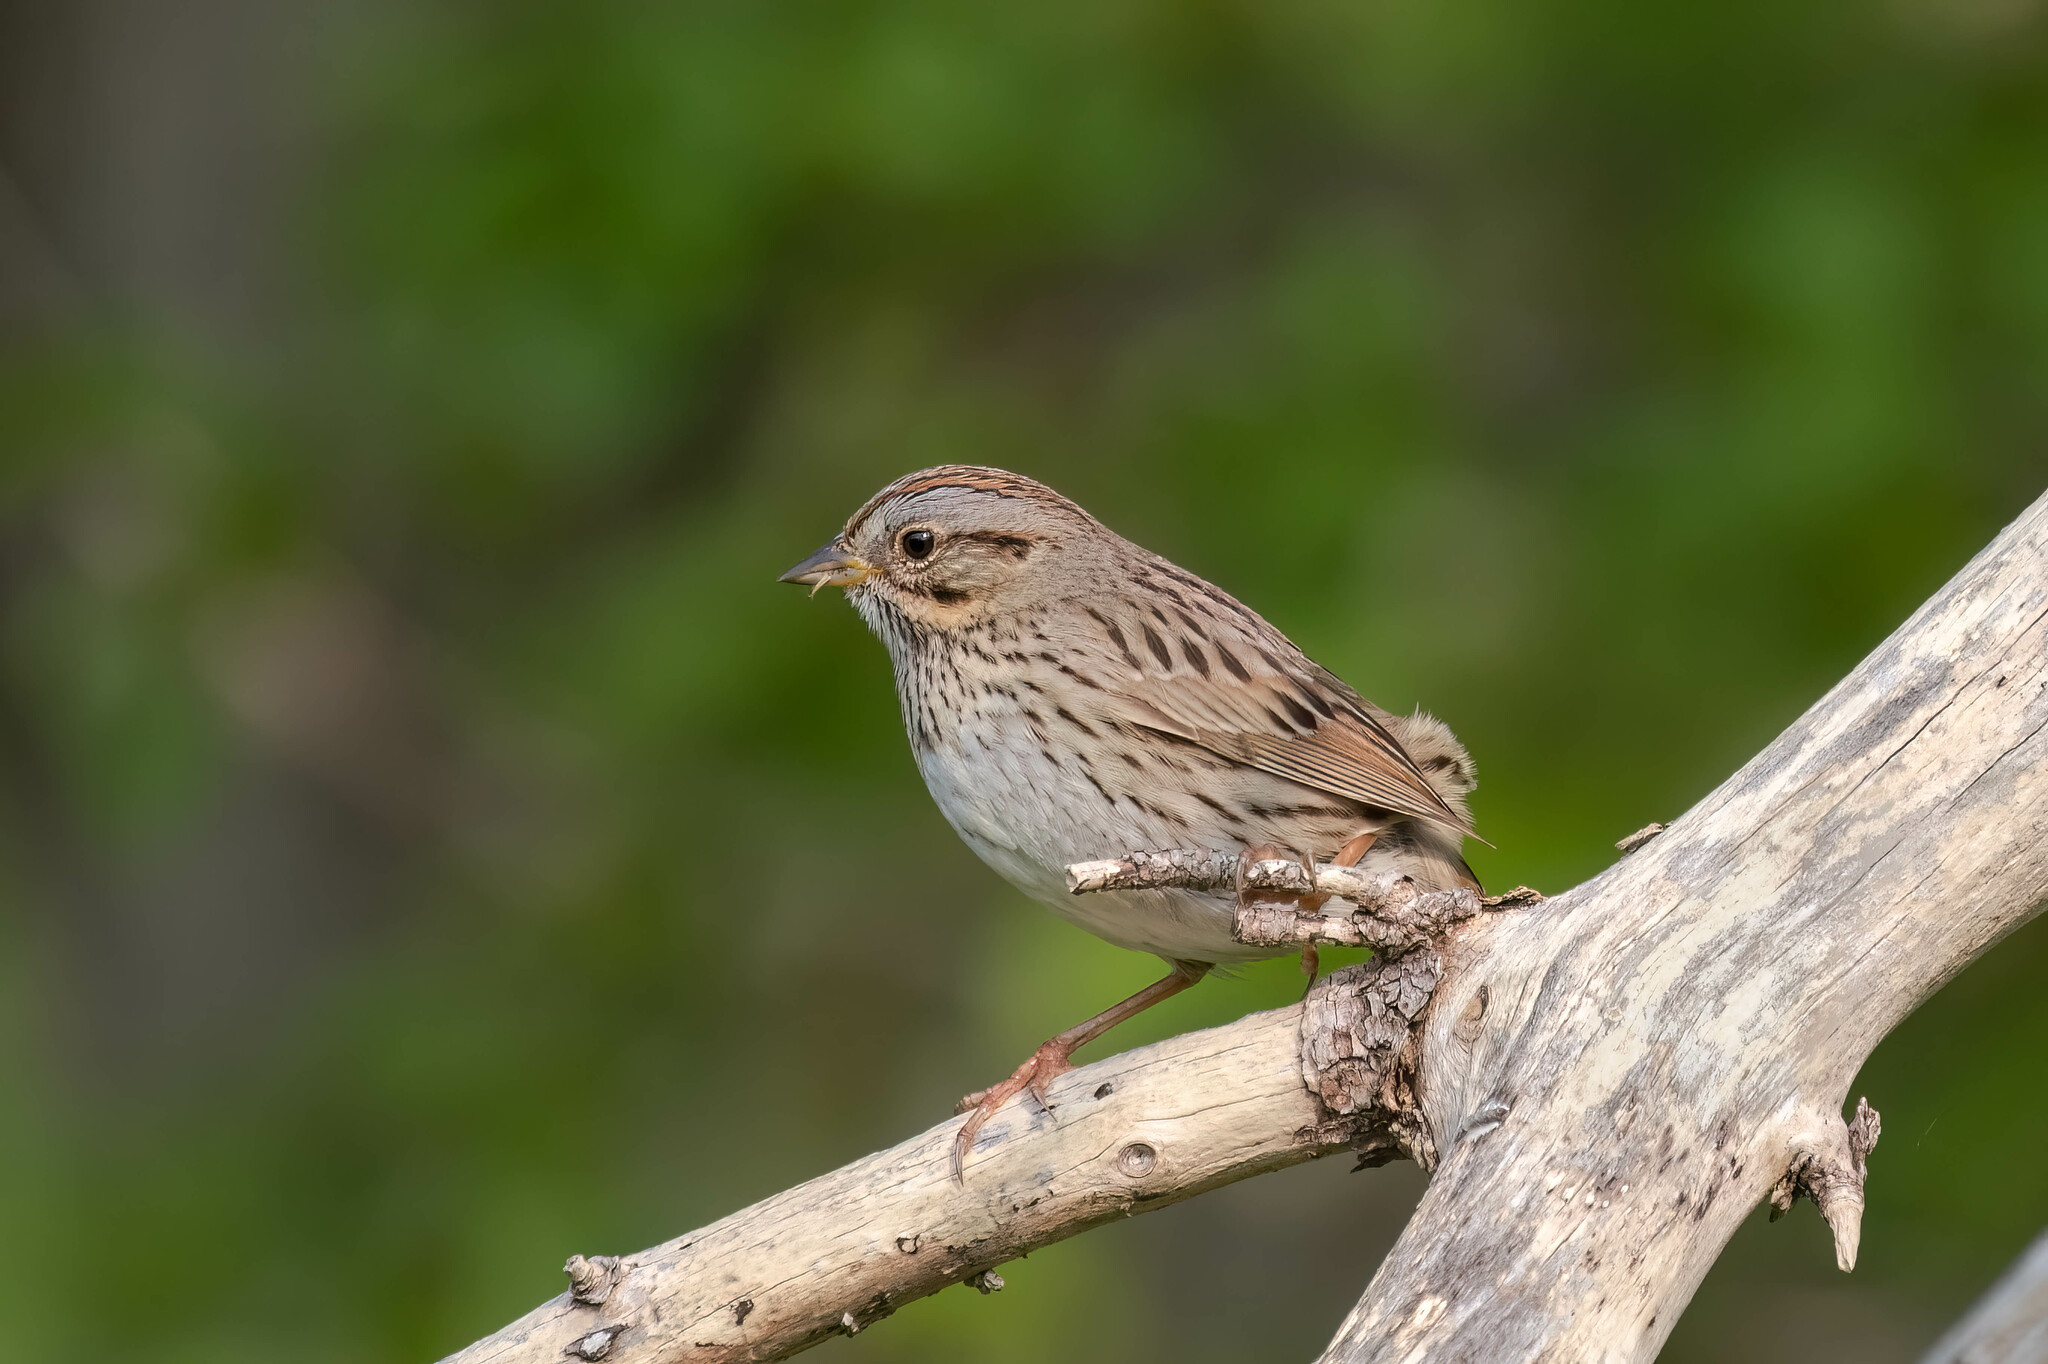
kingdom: Animalia
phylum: Chordata
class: Aves
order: Passeriformes
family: Passerellidae
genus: Melospiza
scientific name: Melospiza lincolnii
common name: Lincoln's sparrow
